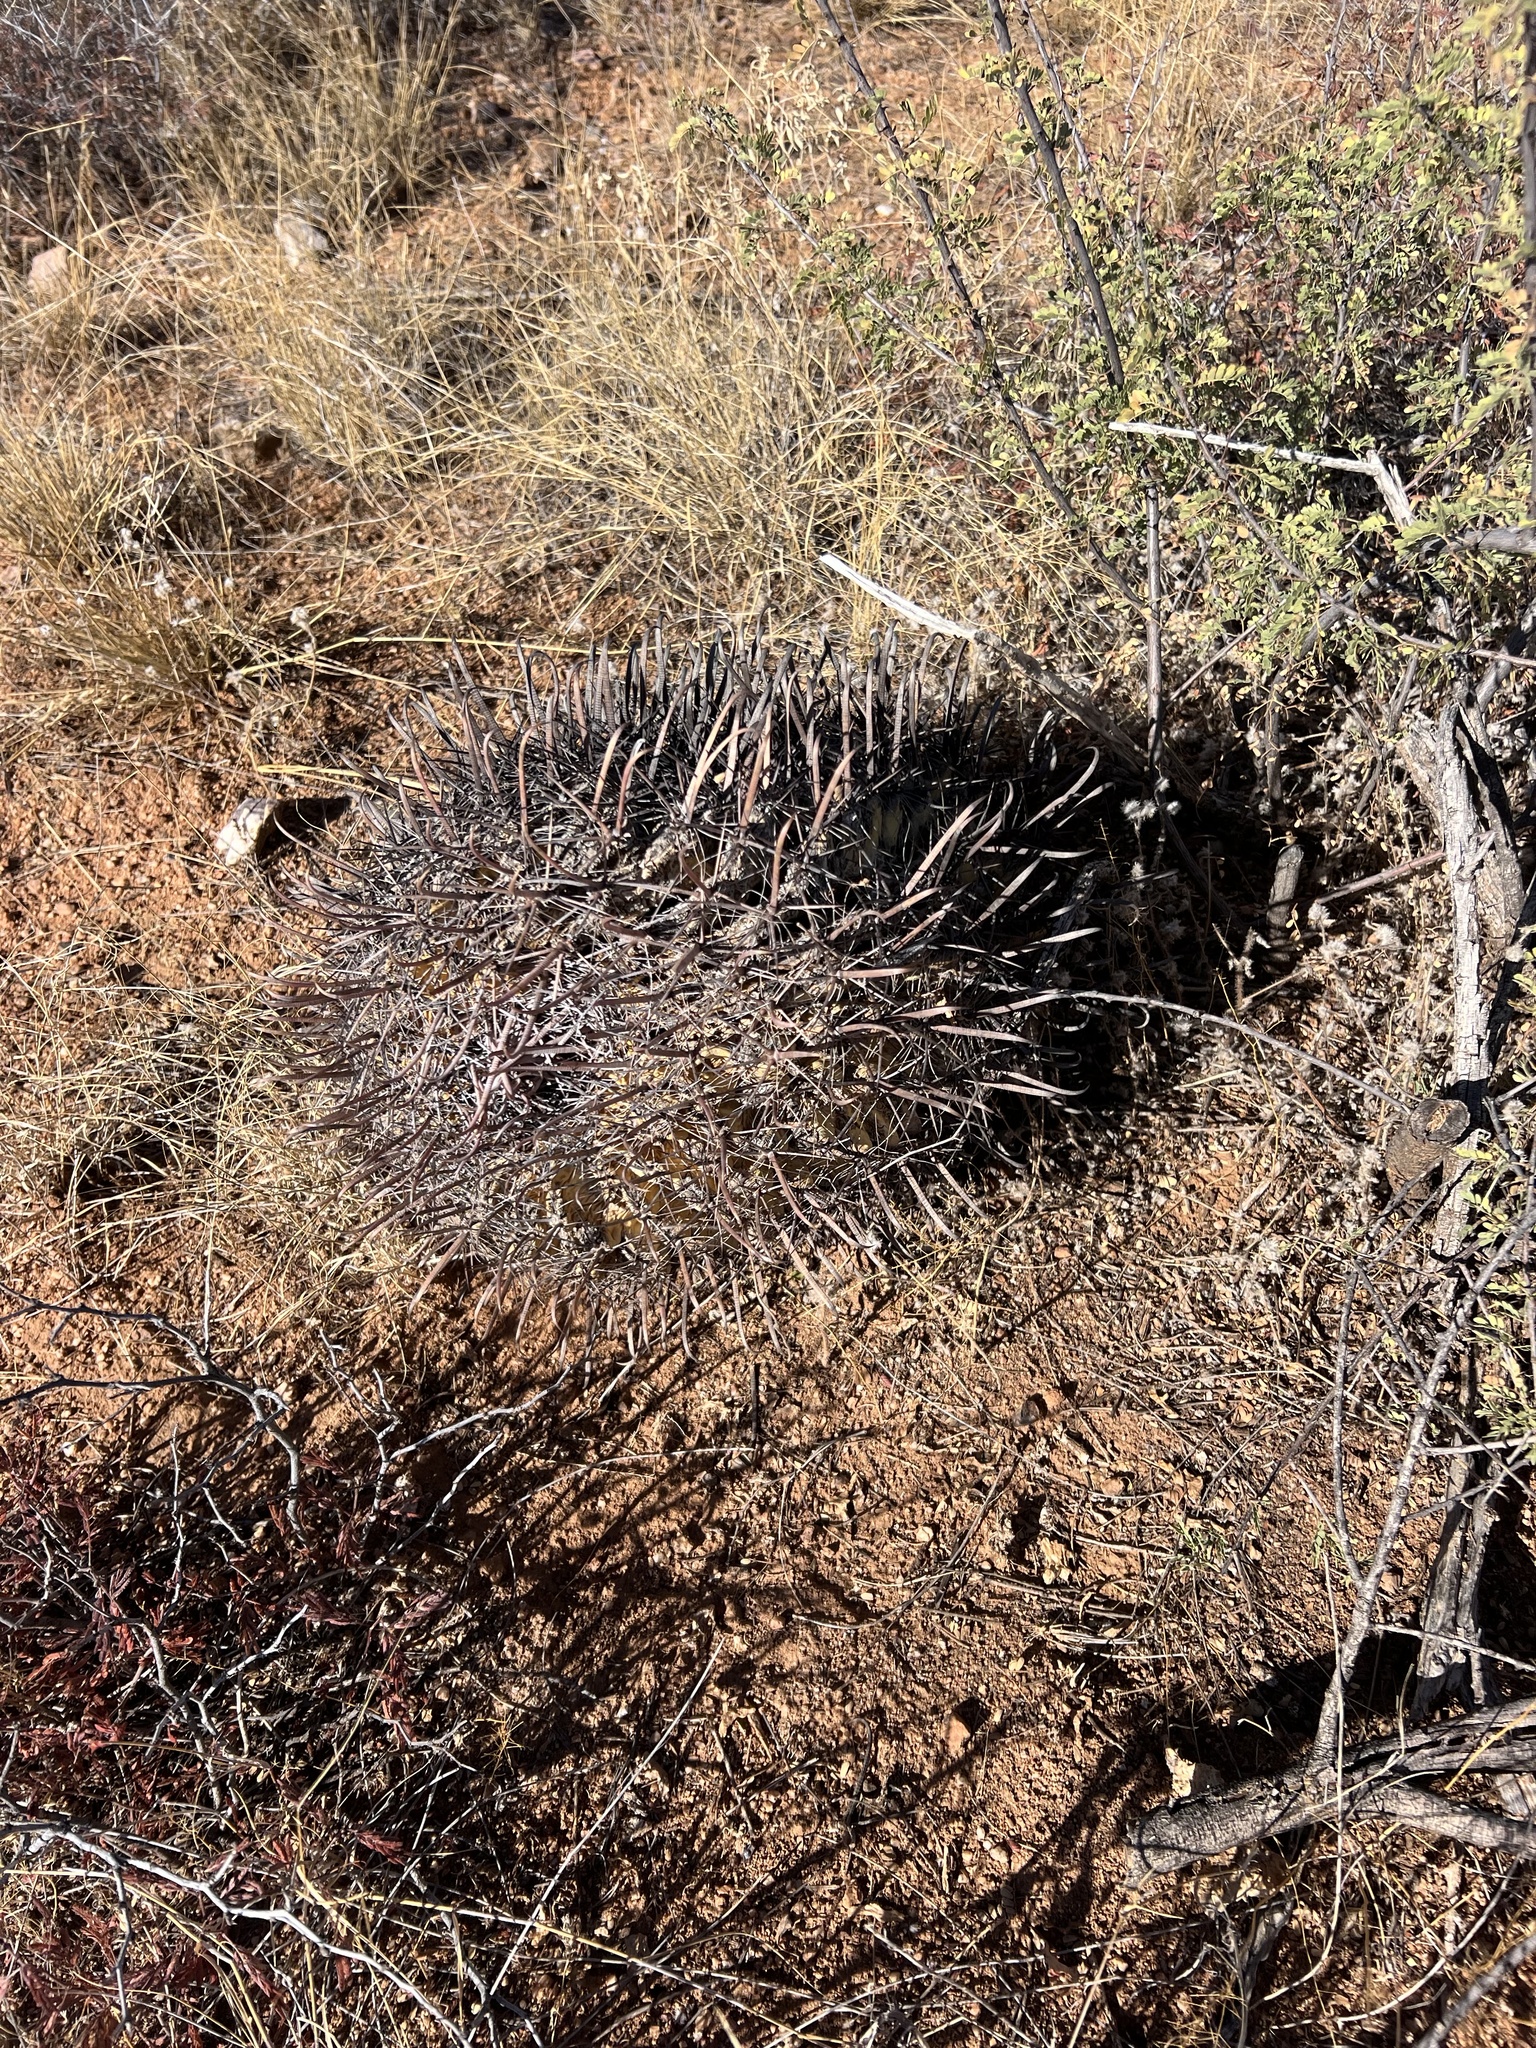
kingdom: Plantae
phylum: Tracheophyta
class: Magnoliopsida
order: Caryophyllales
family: Cactaceae
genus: Ferocactus
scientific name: Ferocactus wislizeni
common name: Candy barrel cactus
